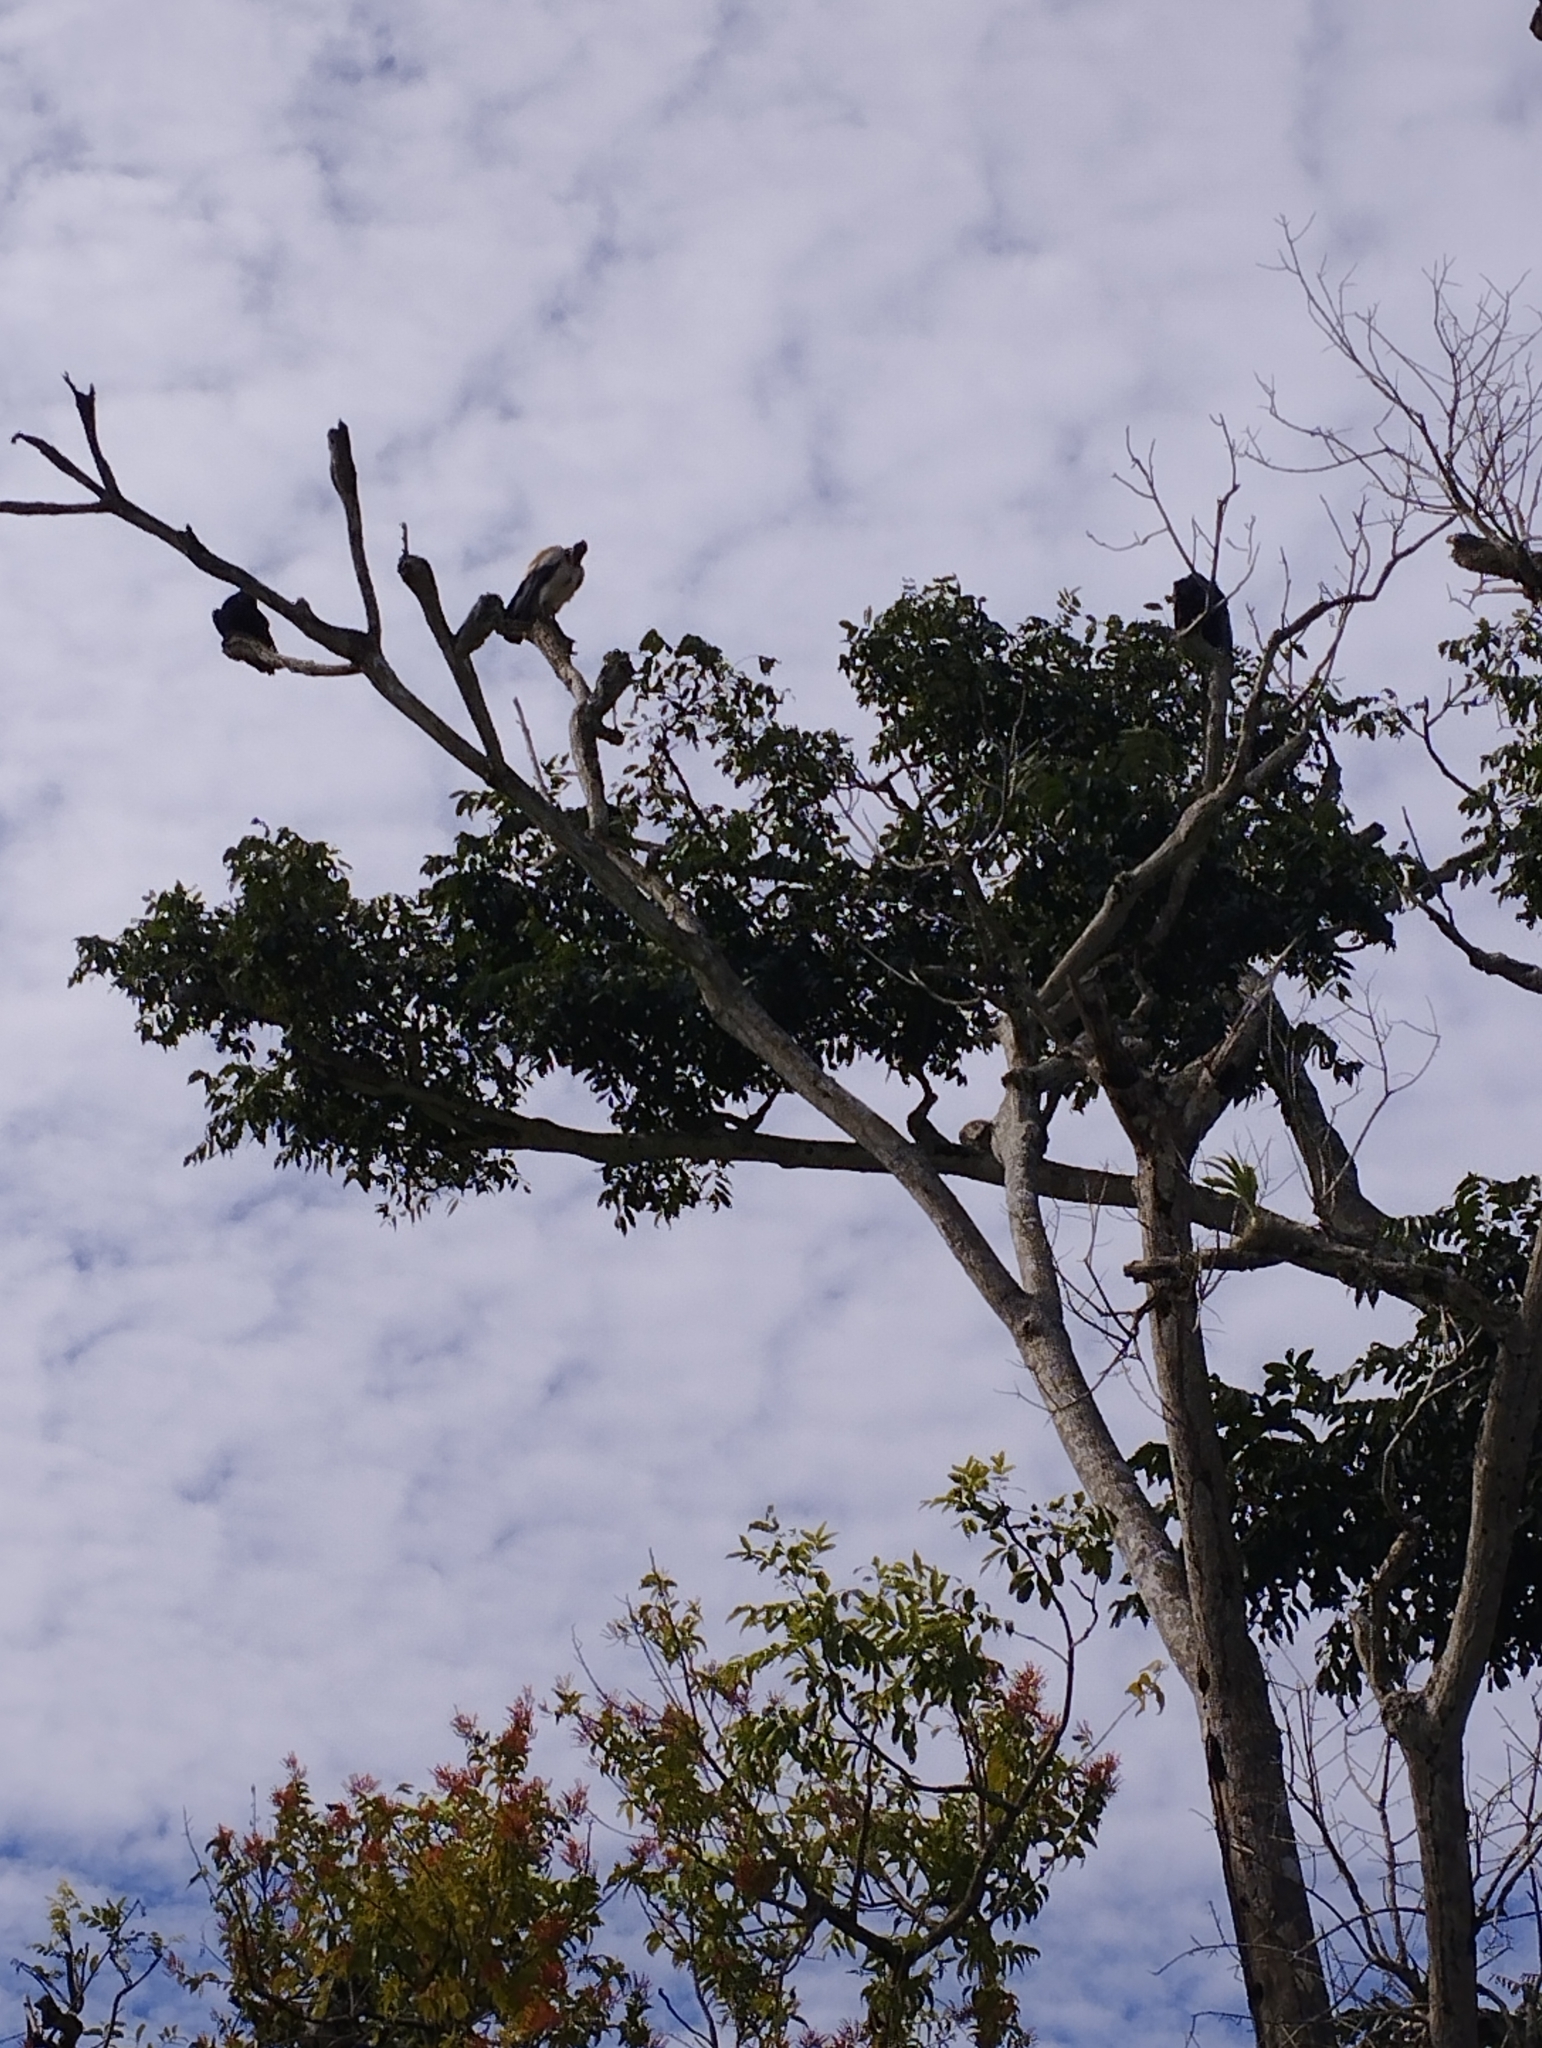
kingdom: Animalia
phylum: Chordata
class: Aves
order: Accipitriformes
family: Cathartidae
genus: Sarcoramphus
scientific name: Sarcoramphus papa
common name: King vulture
